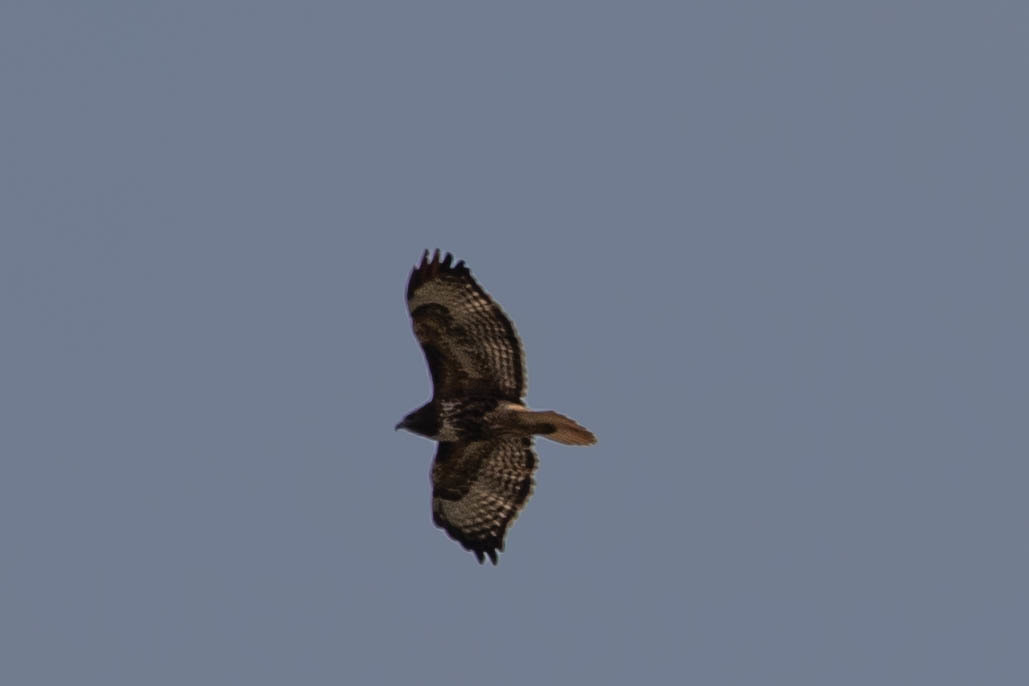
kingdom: Animalia
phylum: Chordata
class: Aves
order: Accipitriformes
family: Accipitridae
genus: Buteo
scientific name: Buteo jamaicensis
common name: Red-tailed hawk
